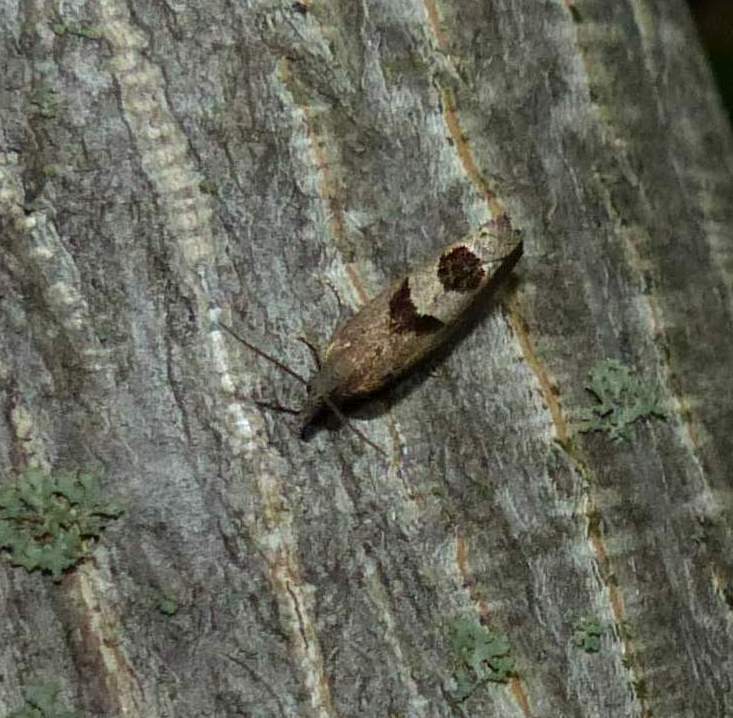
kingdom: Animalia
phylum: Arthropoda
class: Insecta
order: Lepidoptera
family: Tortricidae
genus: Eucosma
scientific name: Eucosma tomonana
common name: Aster-head eucosma moth
